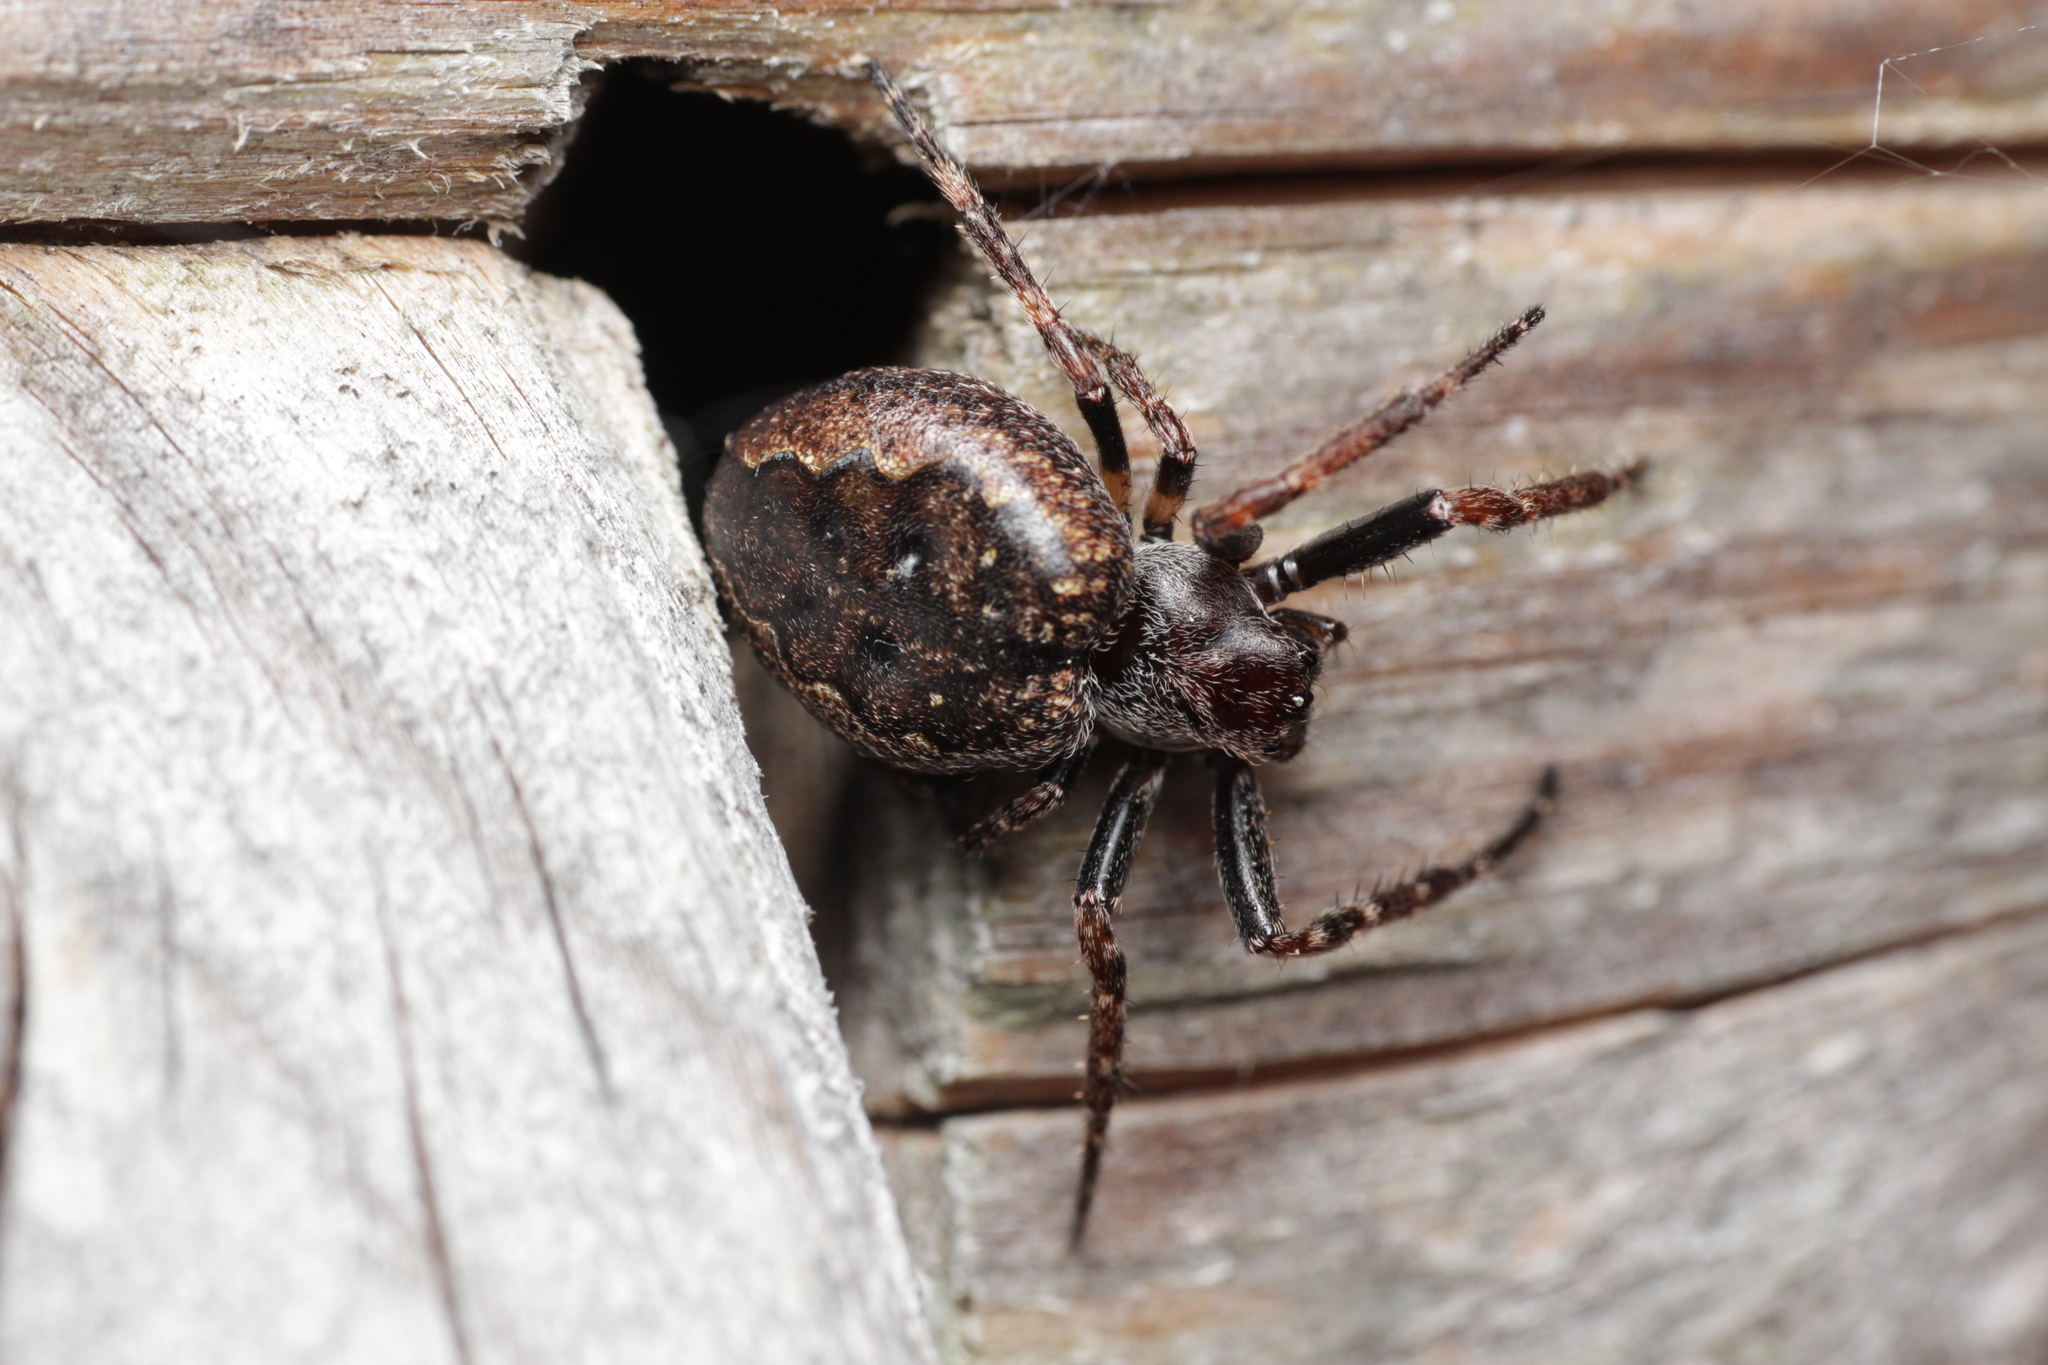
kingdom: Animalia
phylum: Arthropoda
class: Arachnida
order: Araneae
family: Araneidae
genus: Nuctenea
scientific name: Nuctenea umbratica
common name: Toad spider
